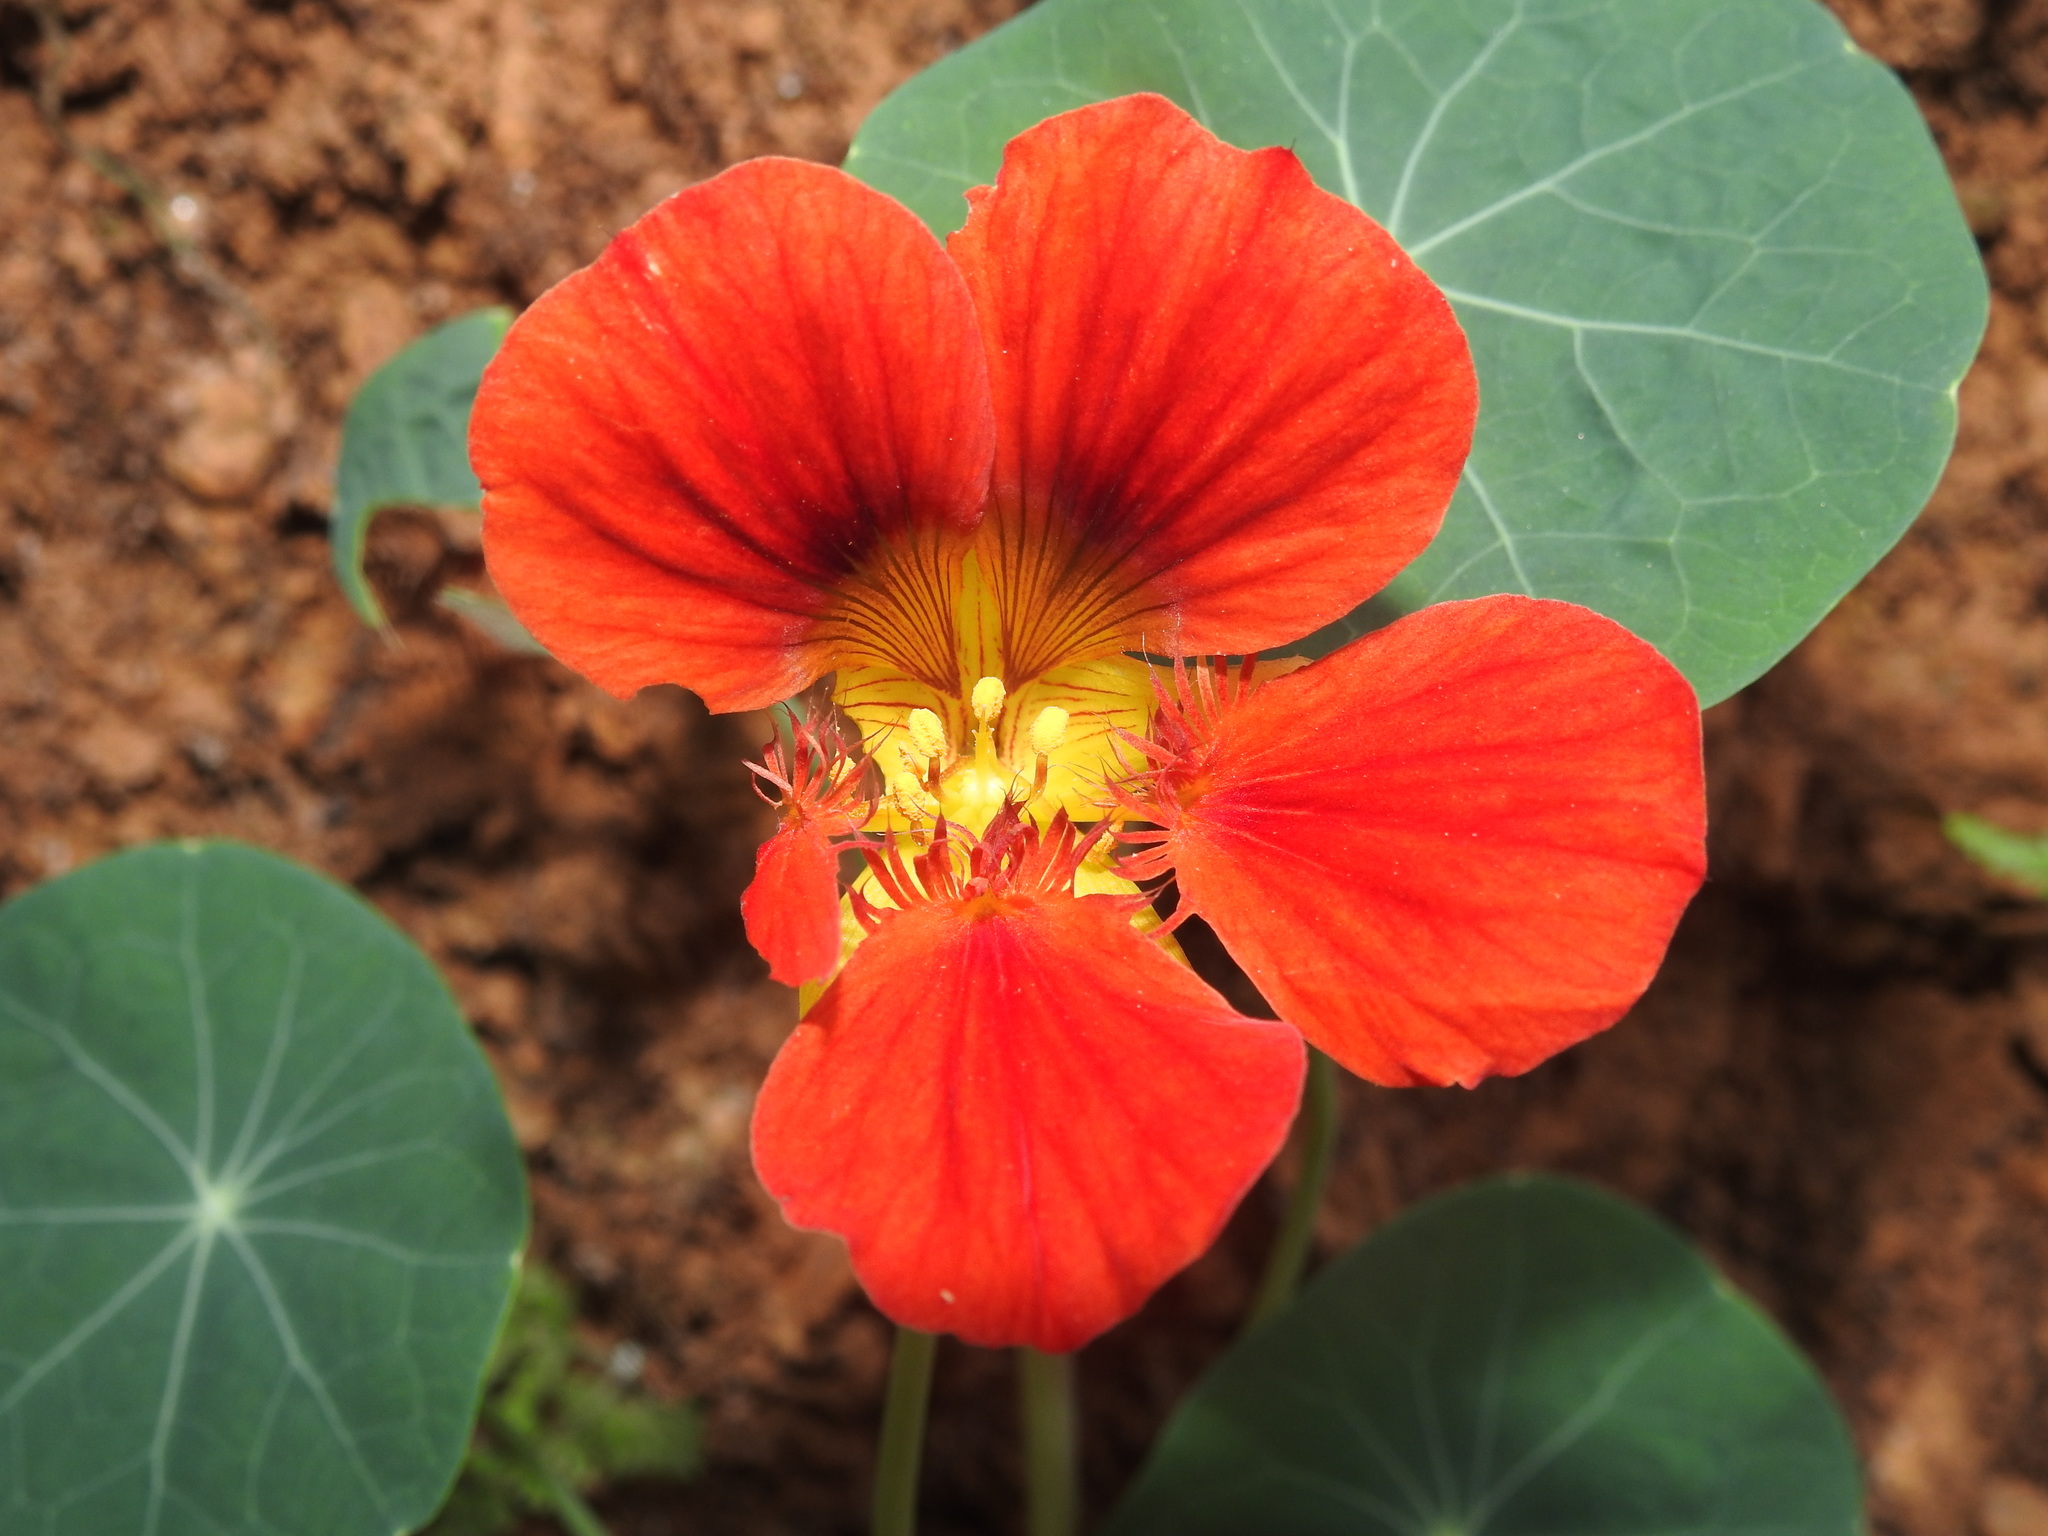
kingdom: Plantae
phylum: Tracheophyta
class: Magnoliopsida
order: Brassicales
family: Tropaeolaceae
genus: Tropaeolum
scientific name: Tropaeolum majus
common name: Nasturtium
